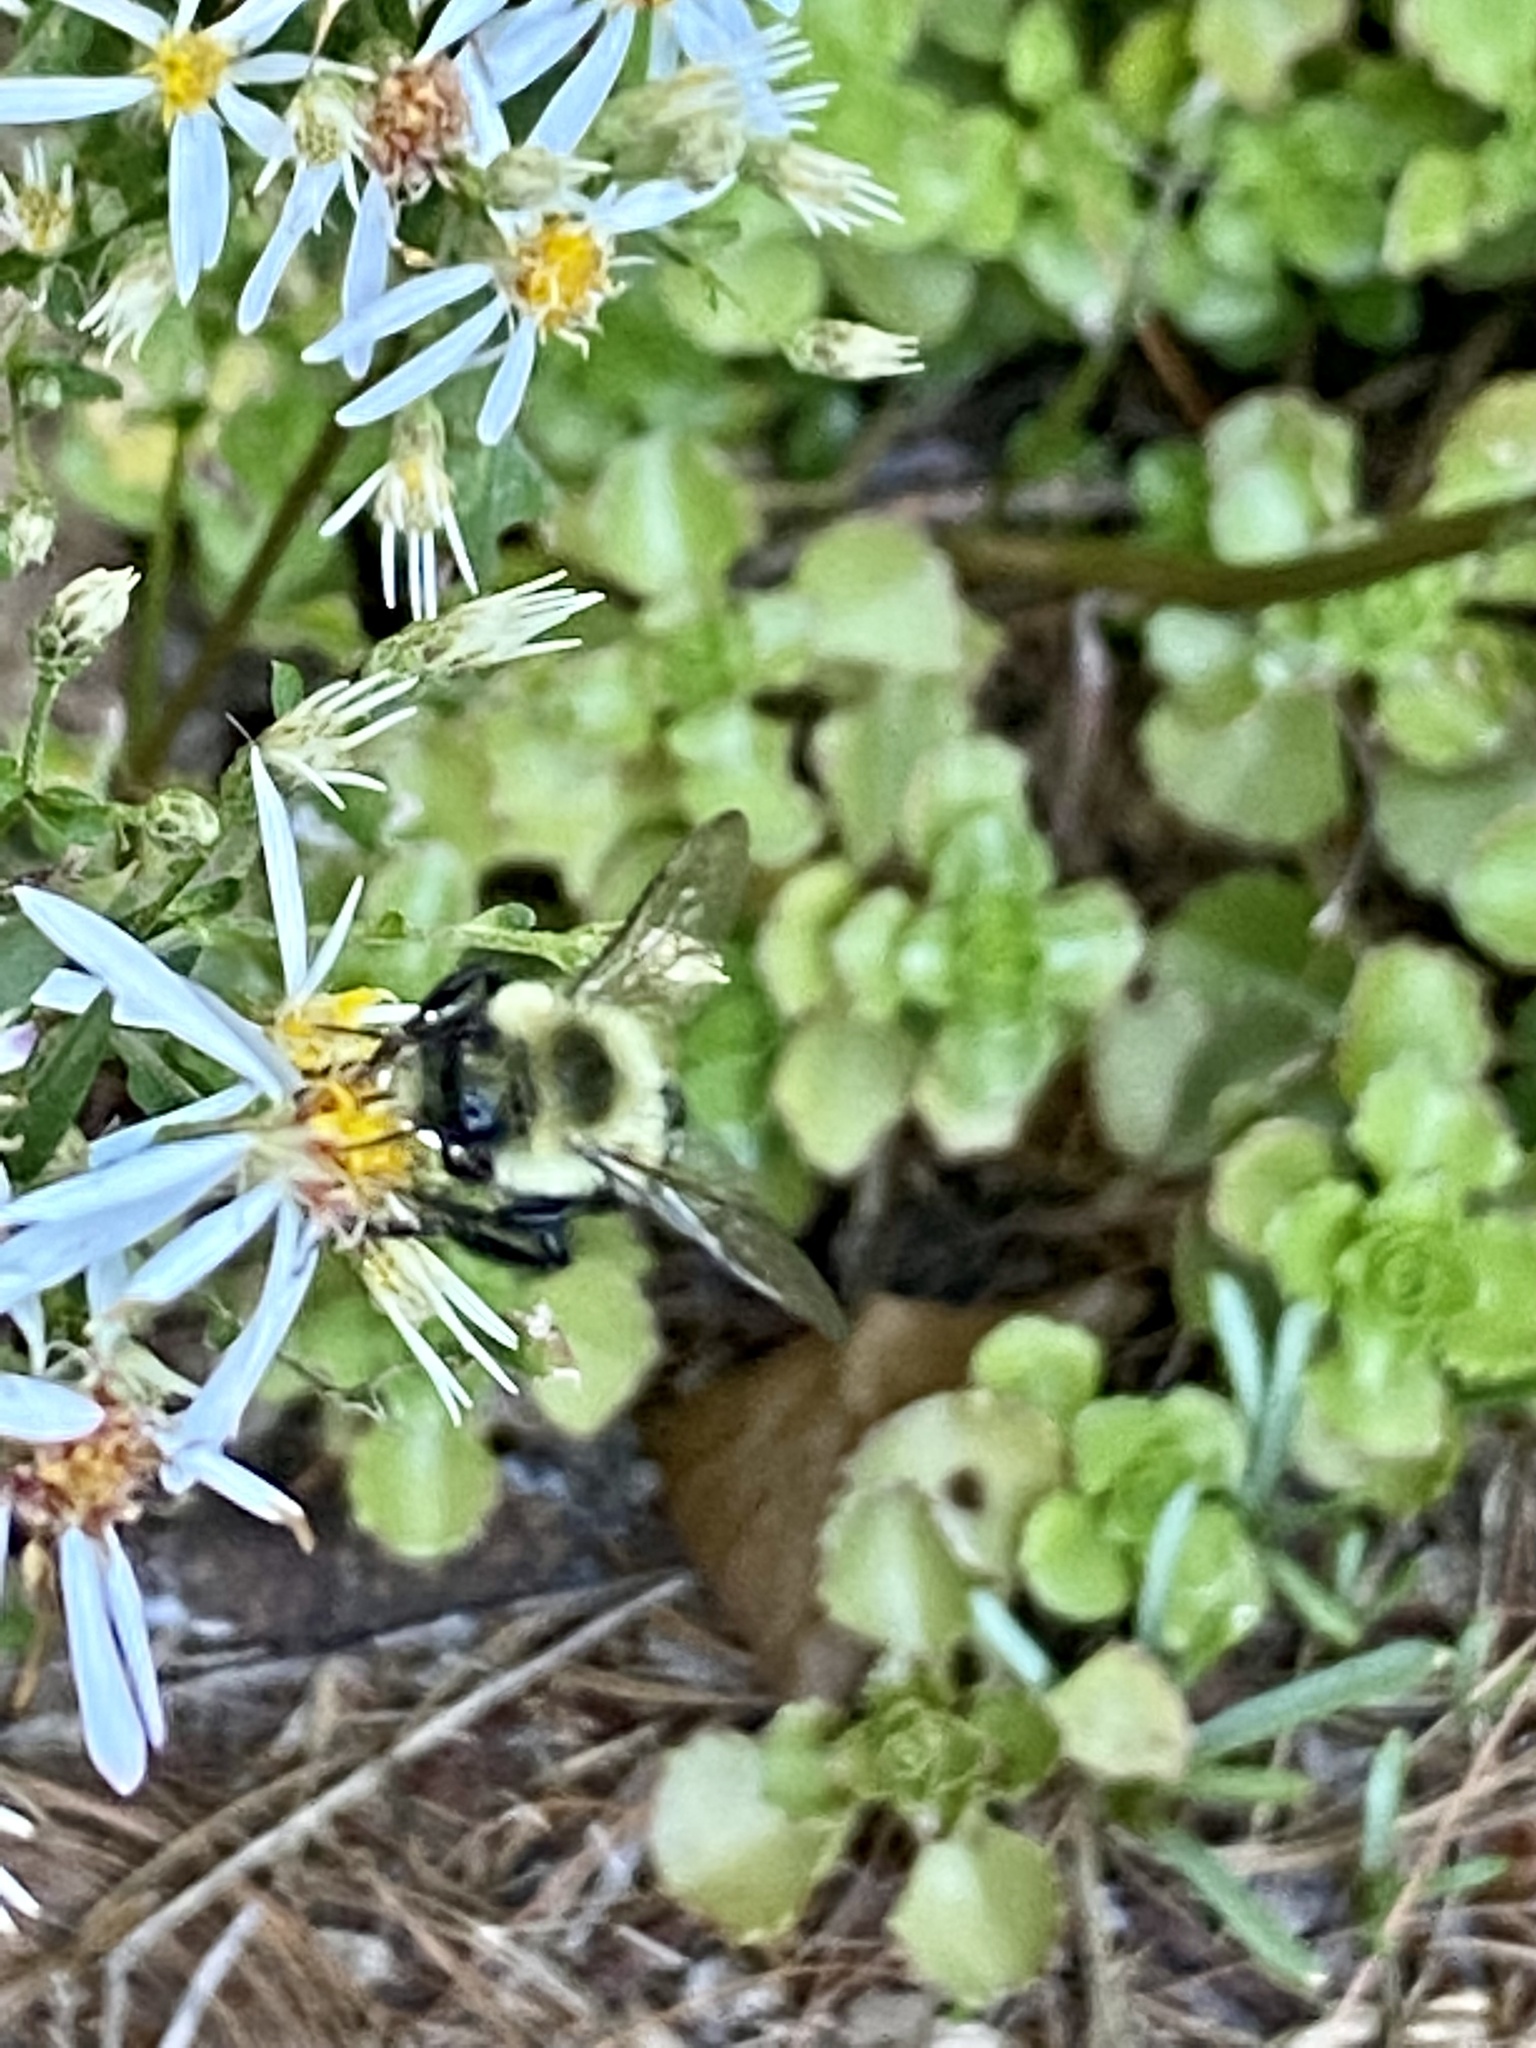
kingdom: Animalia
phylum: Arthropoda
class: Insecta
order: Hymenoptera
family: Apidae
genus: Bombus
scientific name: Bombus impatiens
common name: Common eastern bumble bee
